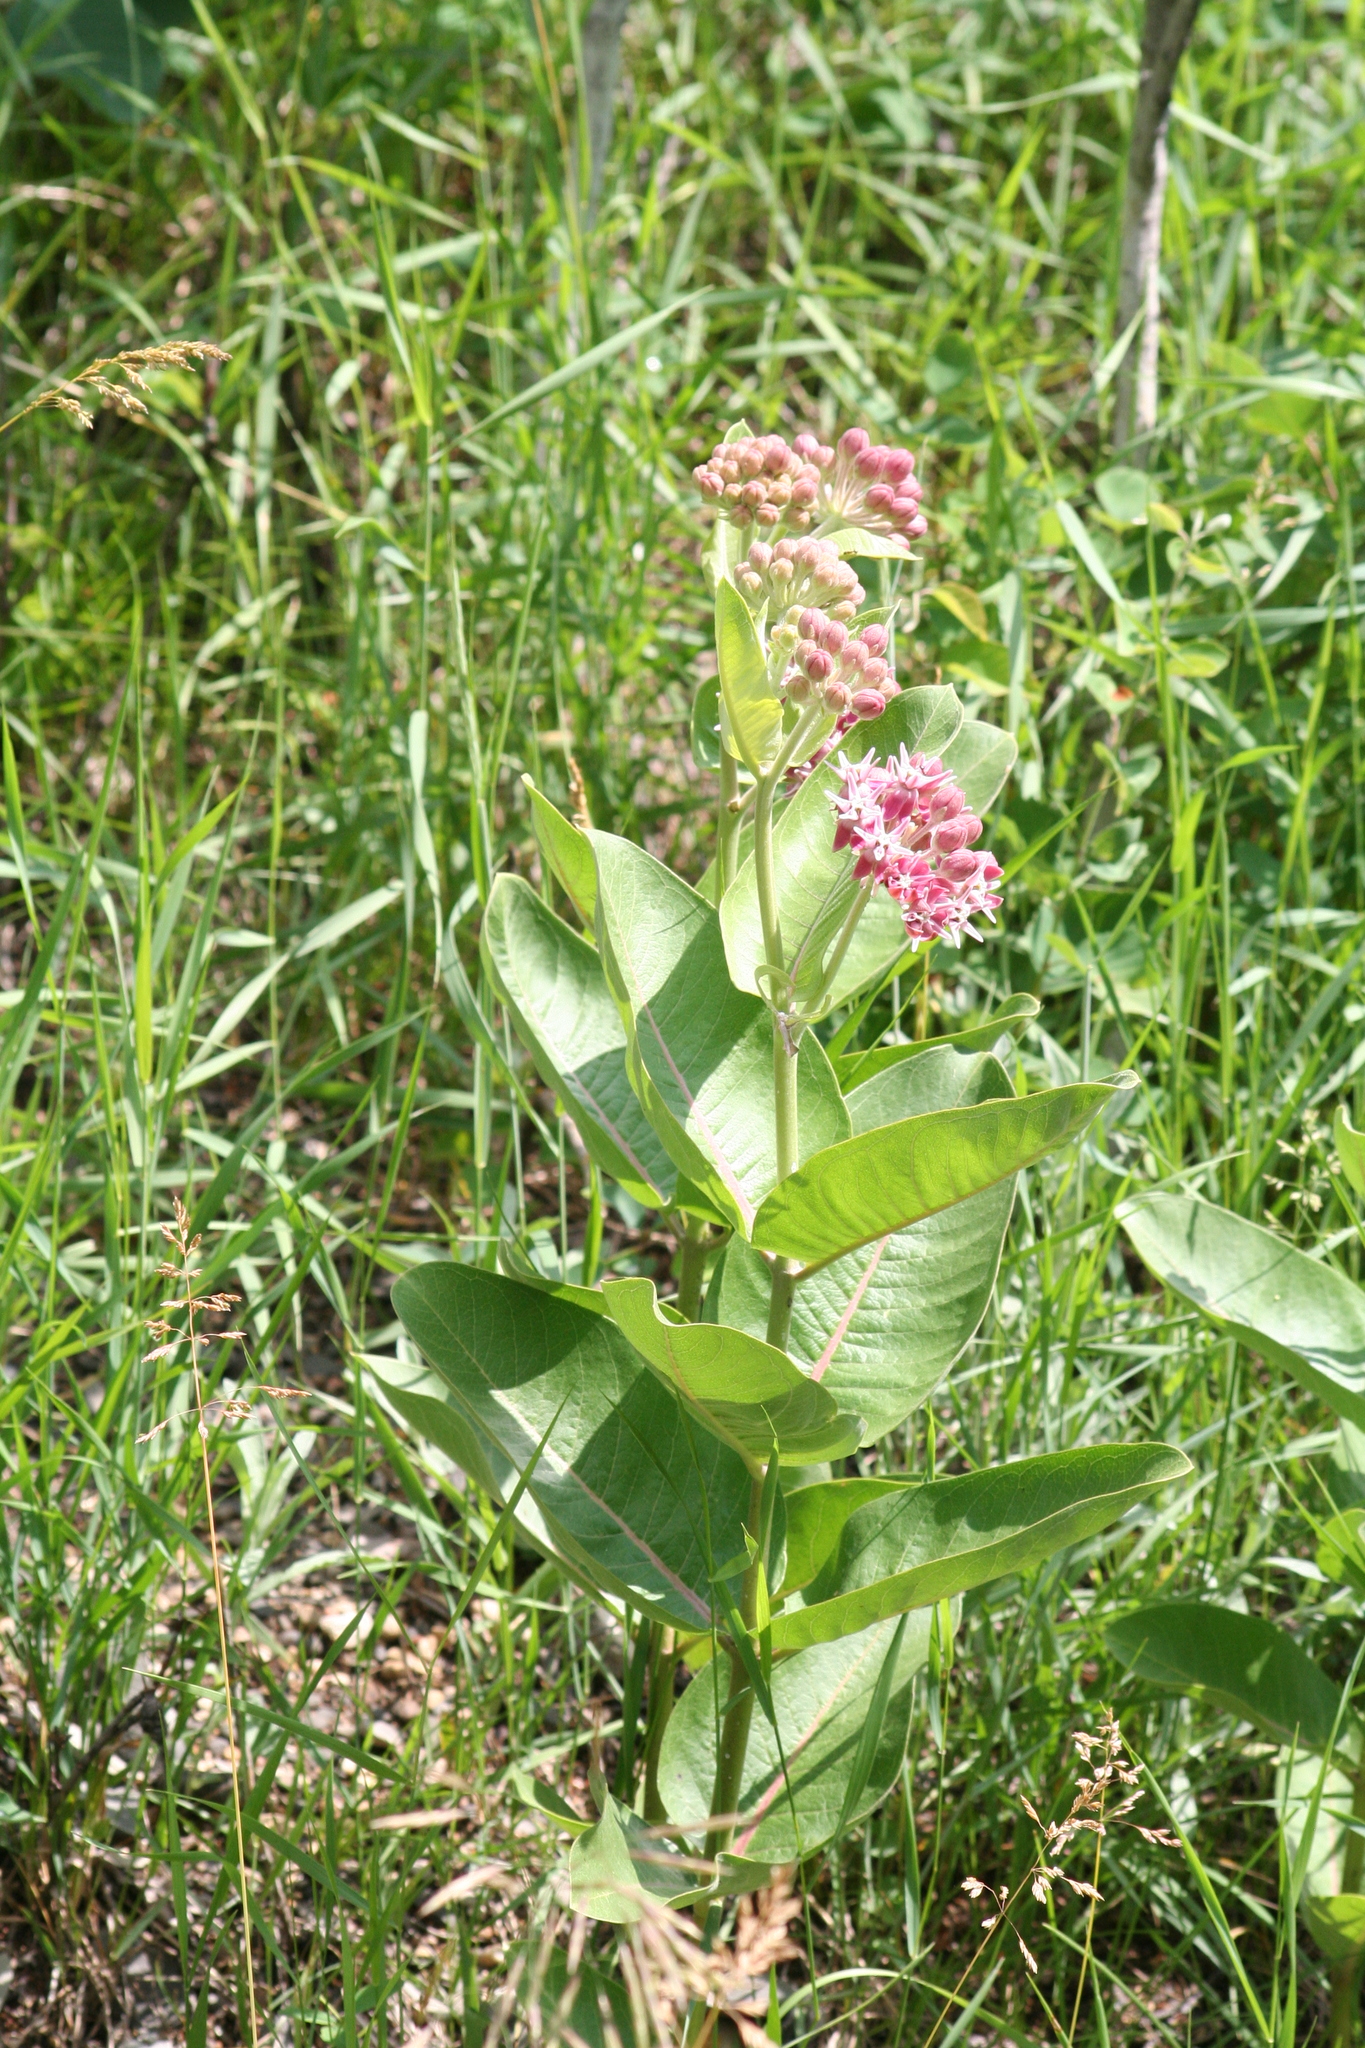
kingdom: Plantae
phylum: Tracheophyta
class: Magnoliopsida
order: Gentianales
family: Apocynaceae
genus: Asclepias
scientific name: Asclepias speciosa
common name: Showy milkweed
